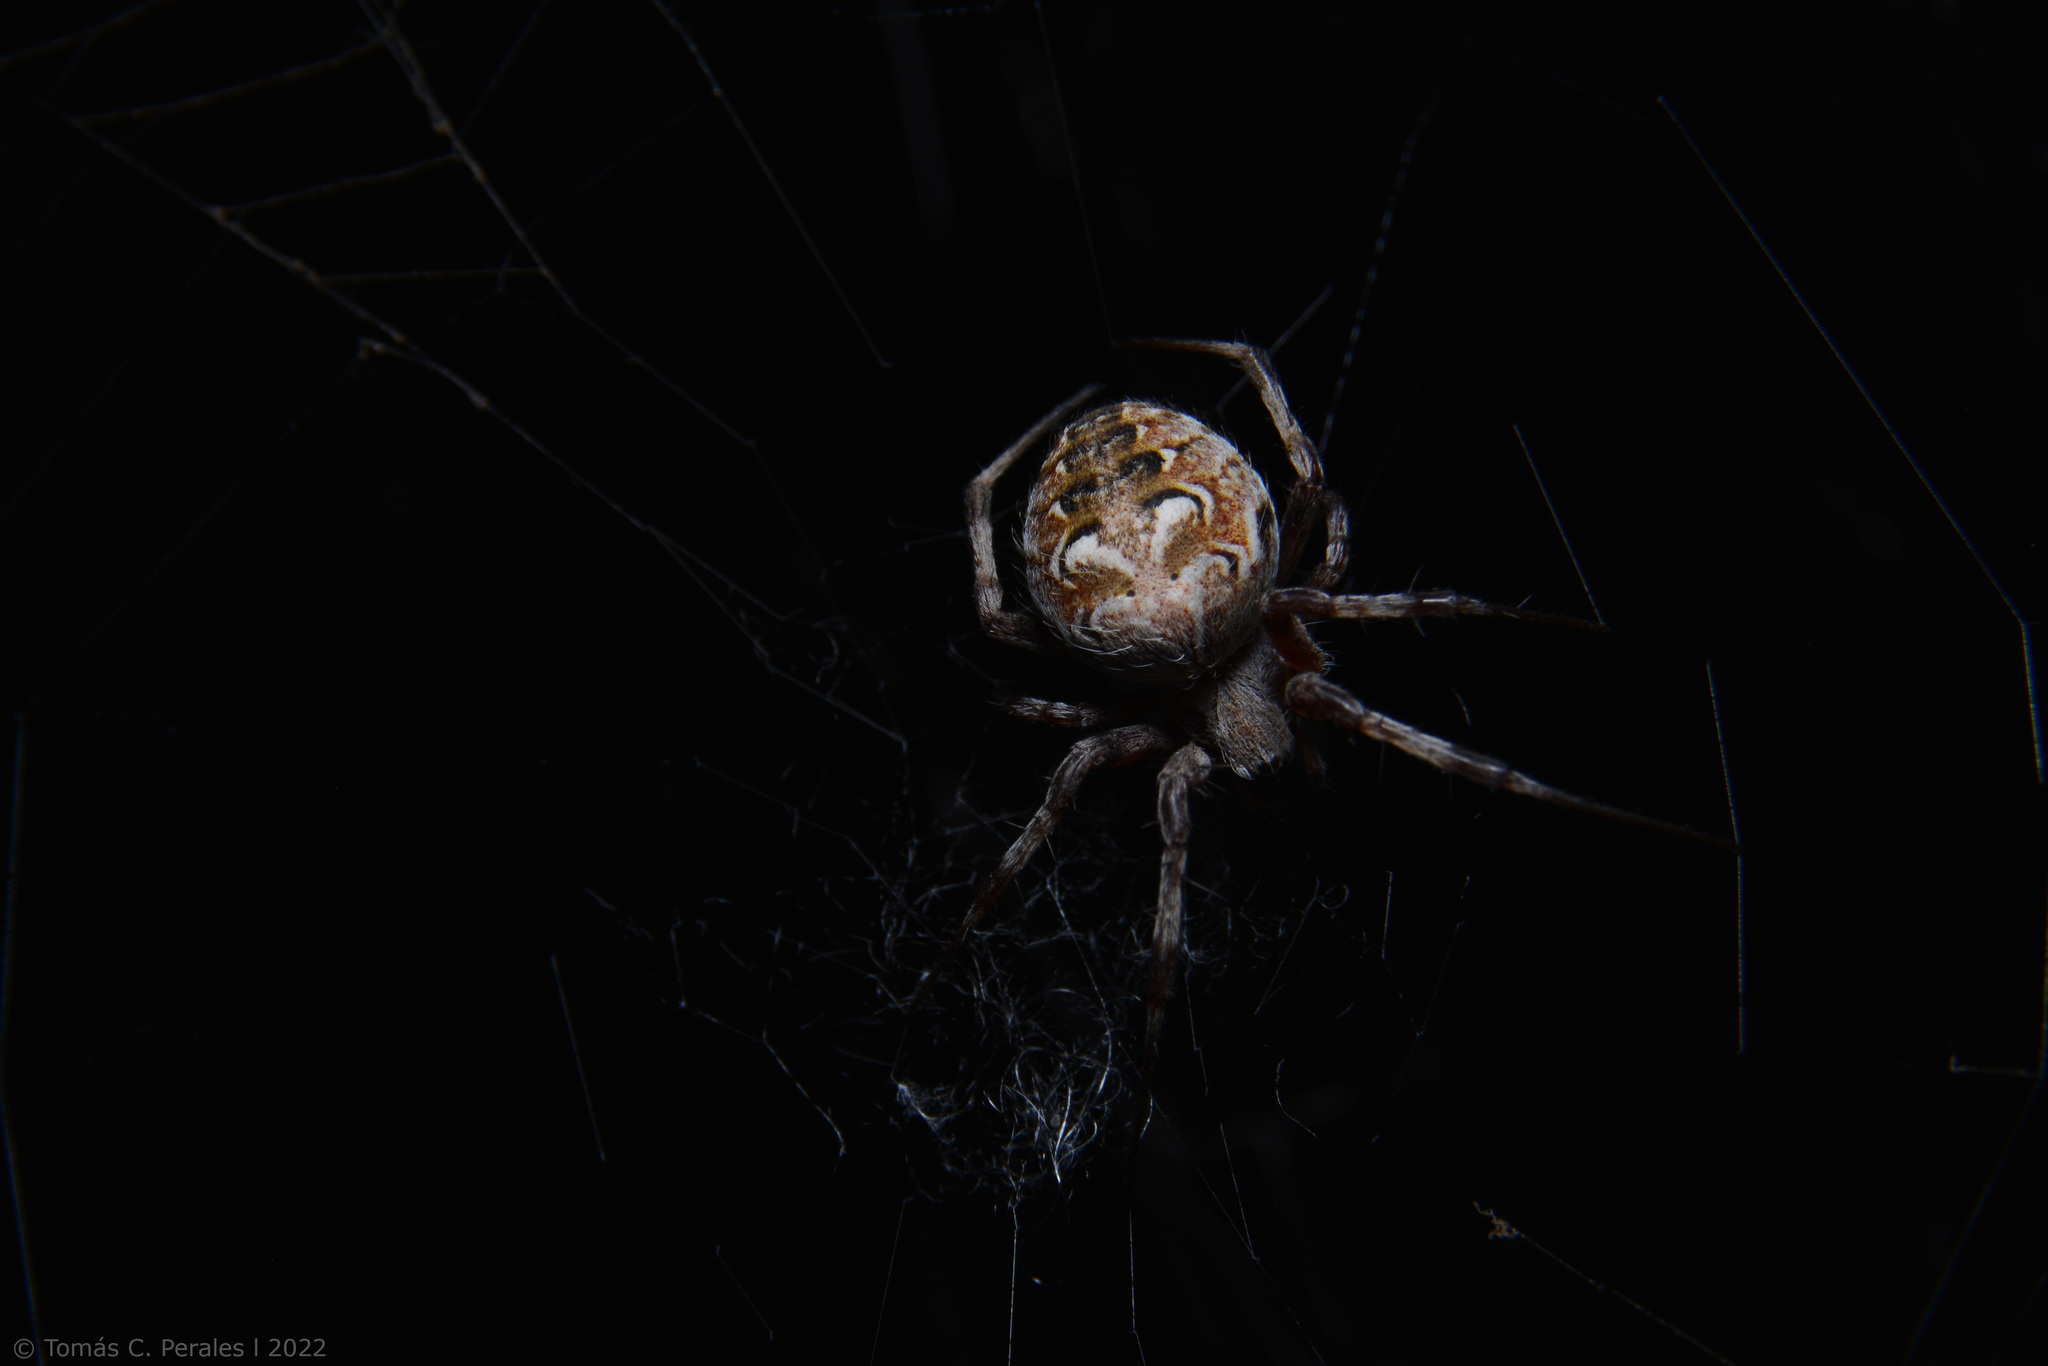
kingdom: Animalia
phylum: Arthropoda
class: Arachnida
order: Araneae
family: Araneidae
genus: Metepeira
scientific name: Metepeira
